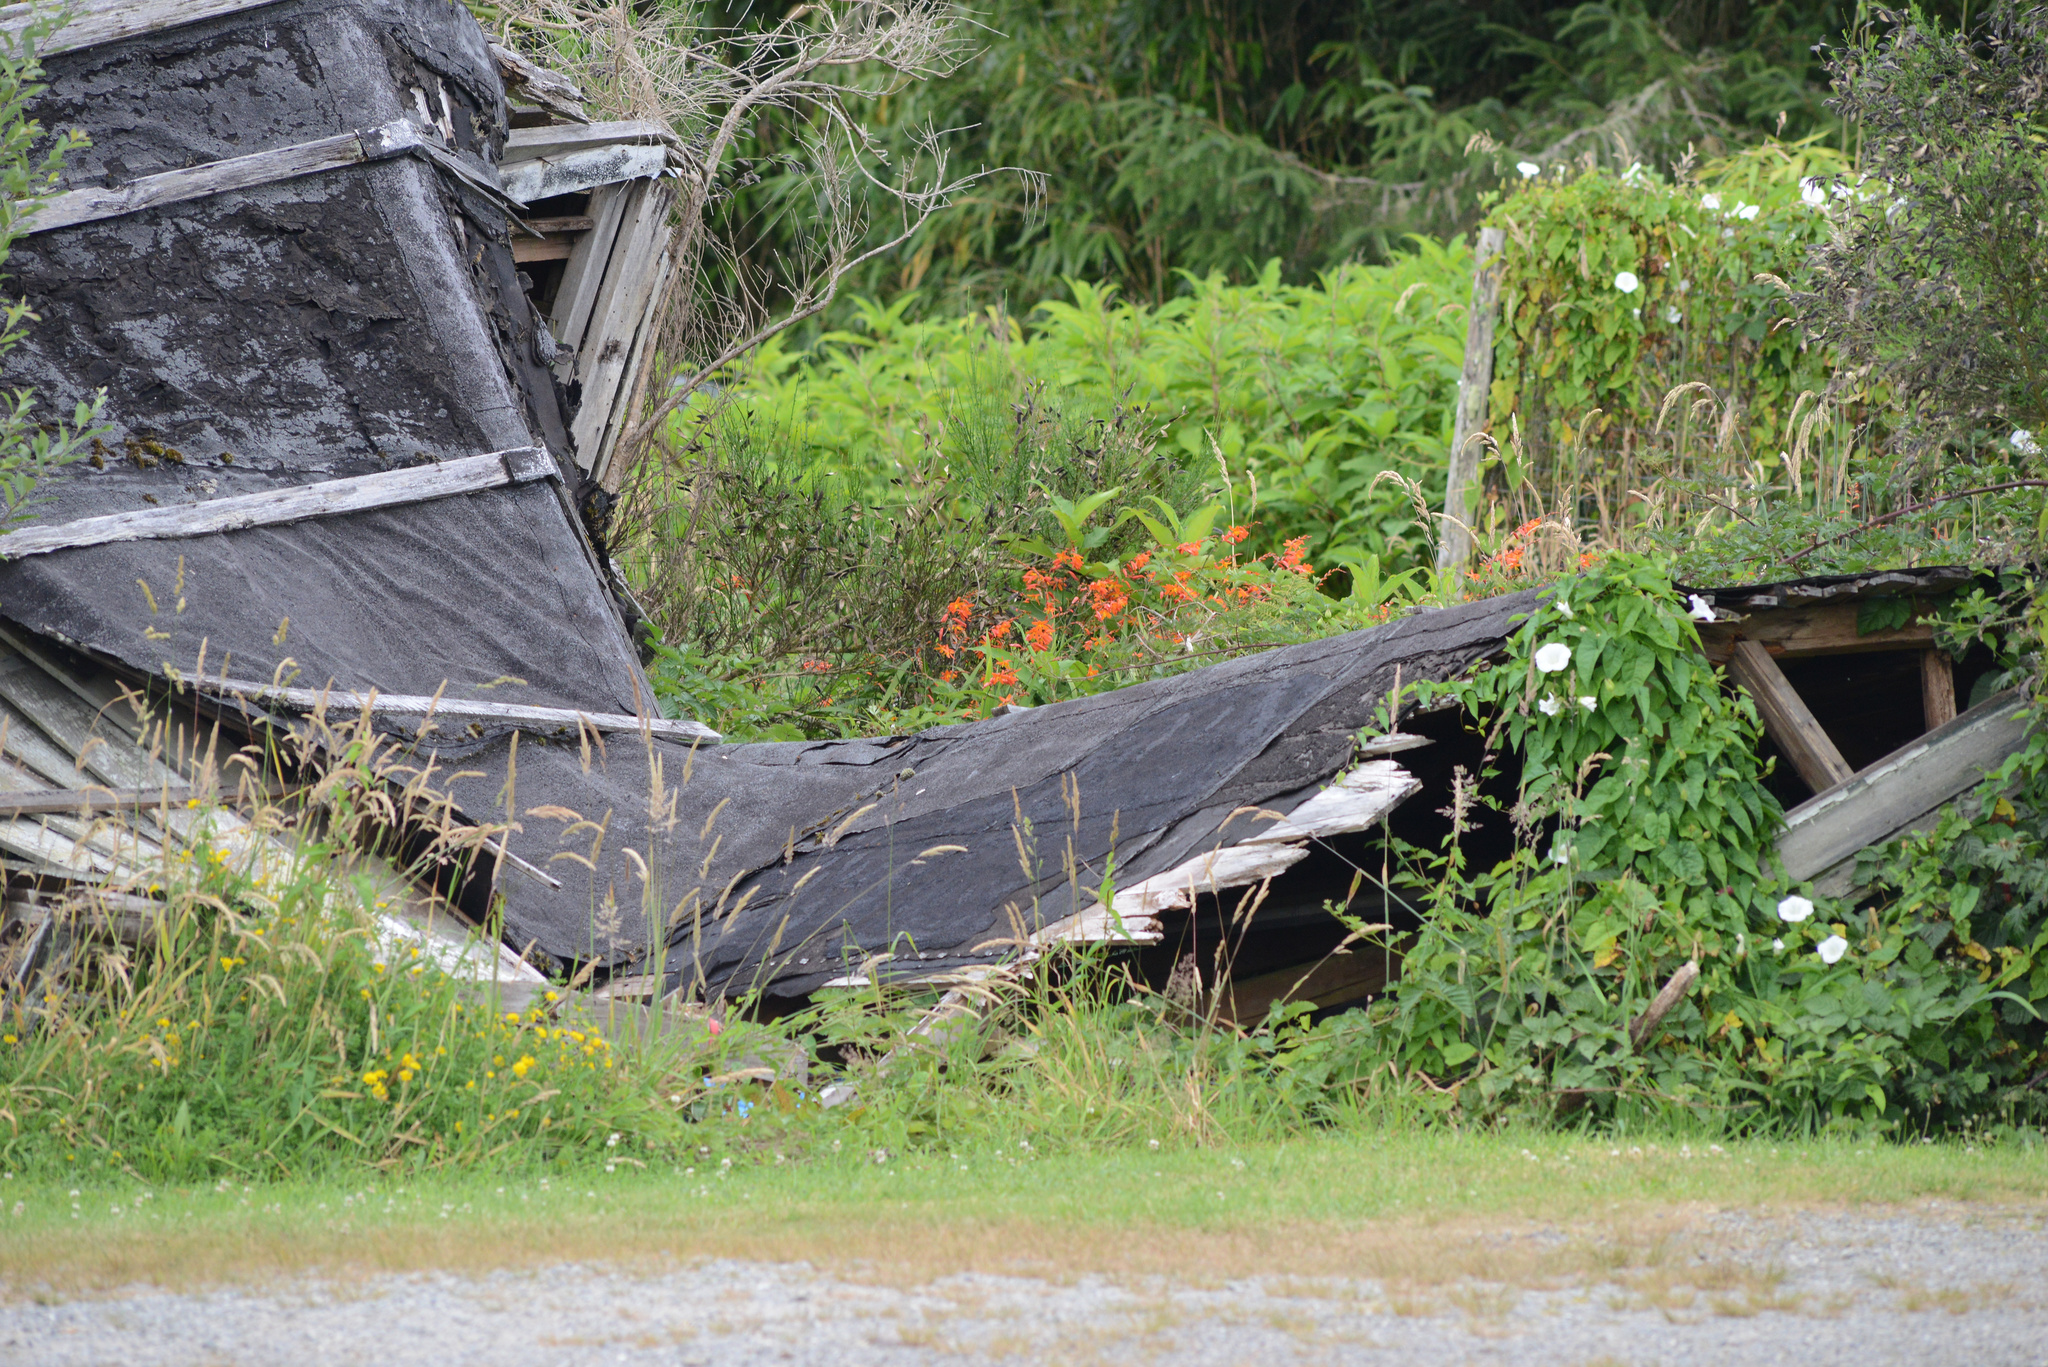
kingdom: Plantae
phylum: Tracheophyta
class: Liliopsida
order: Asparagales
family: Iridaceae
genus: Crocosmia
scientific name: Crocosmia crocosmiiflora
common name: Montbretia
